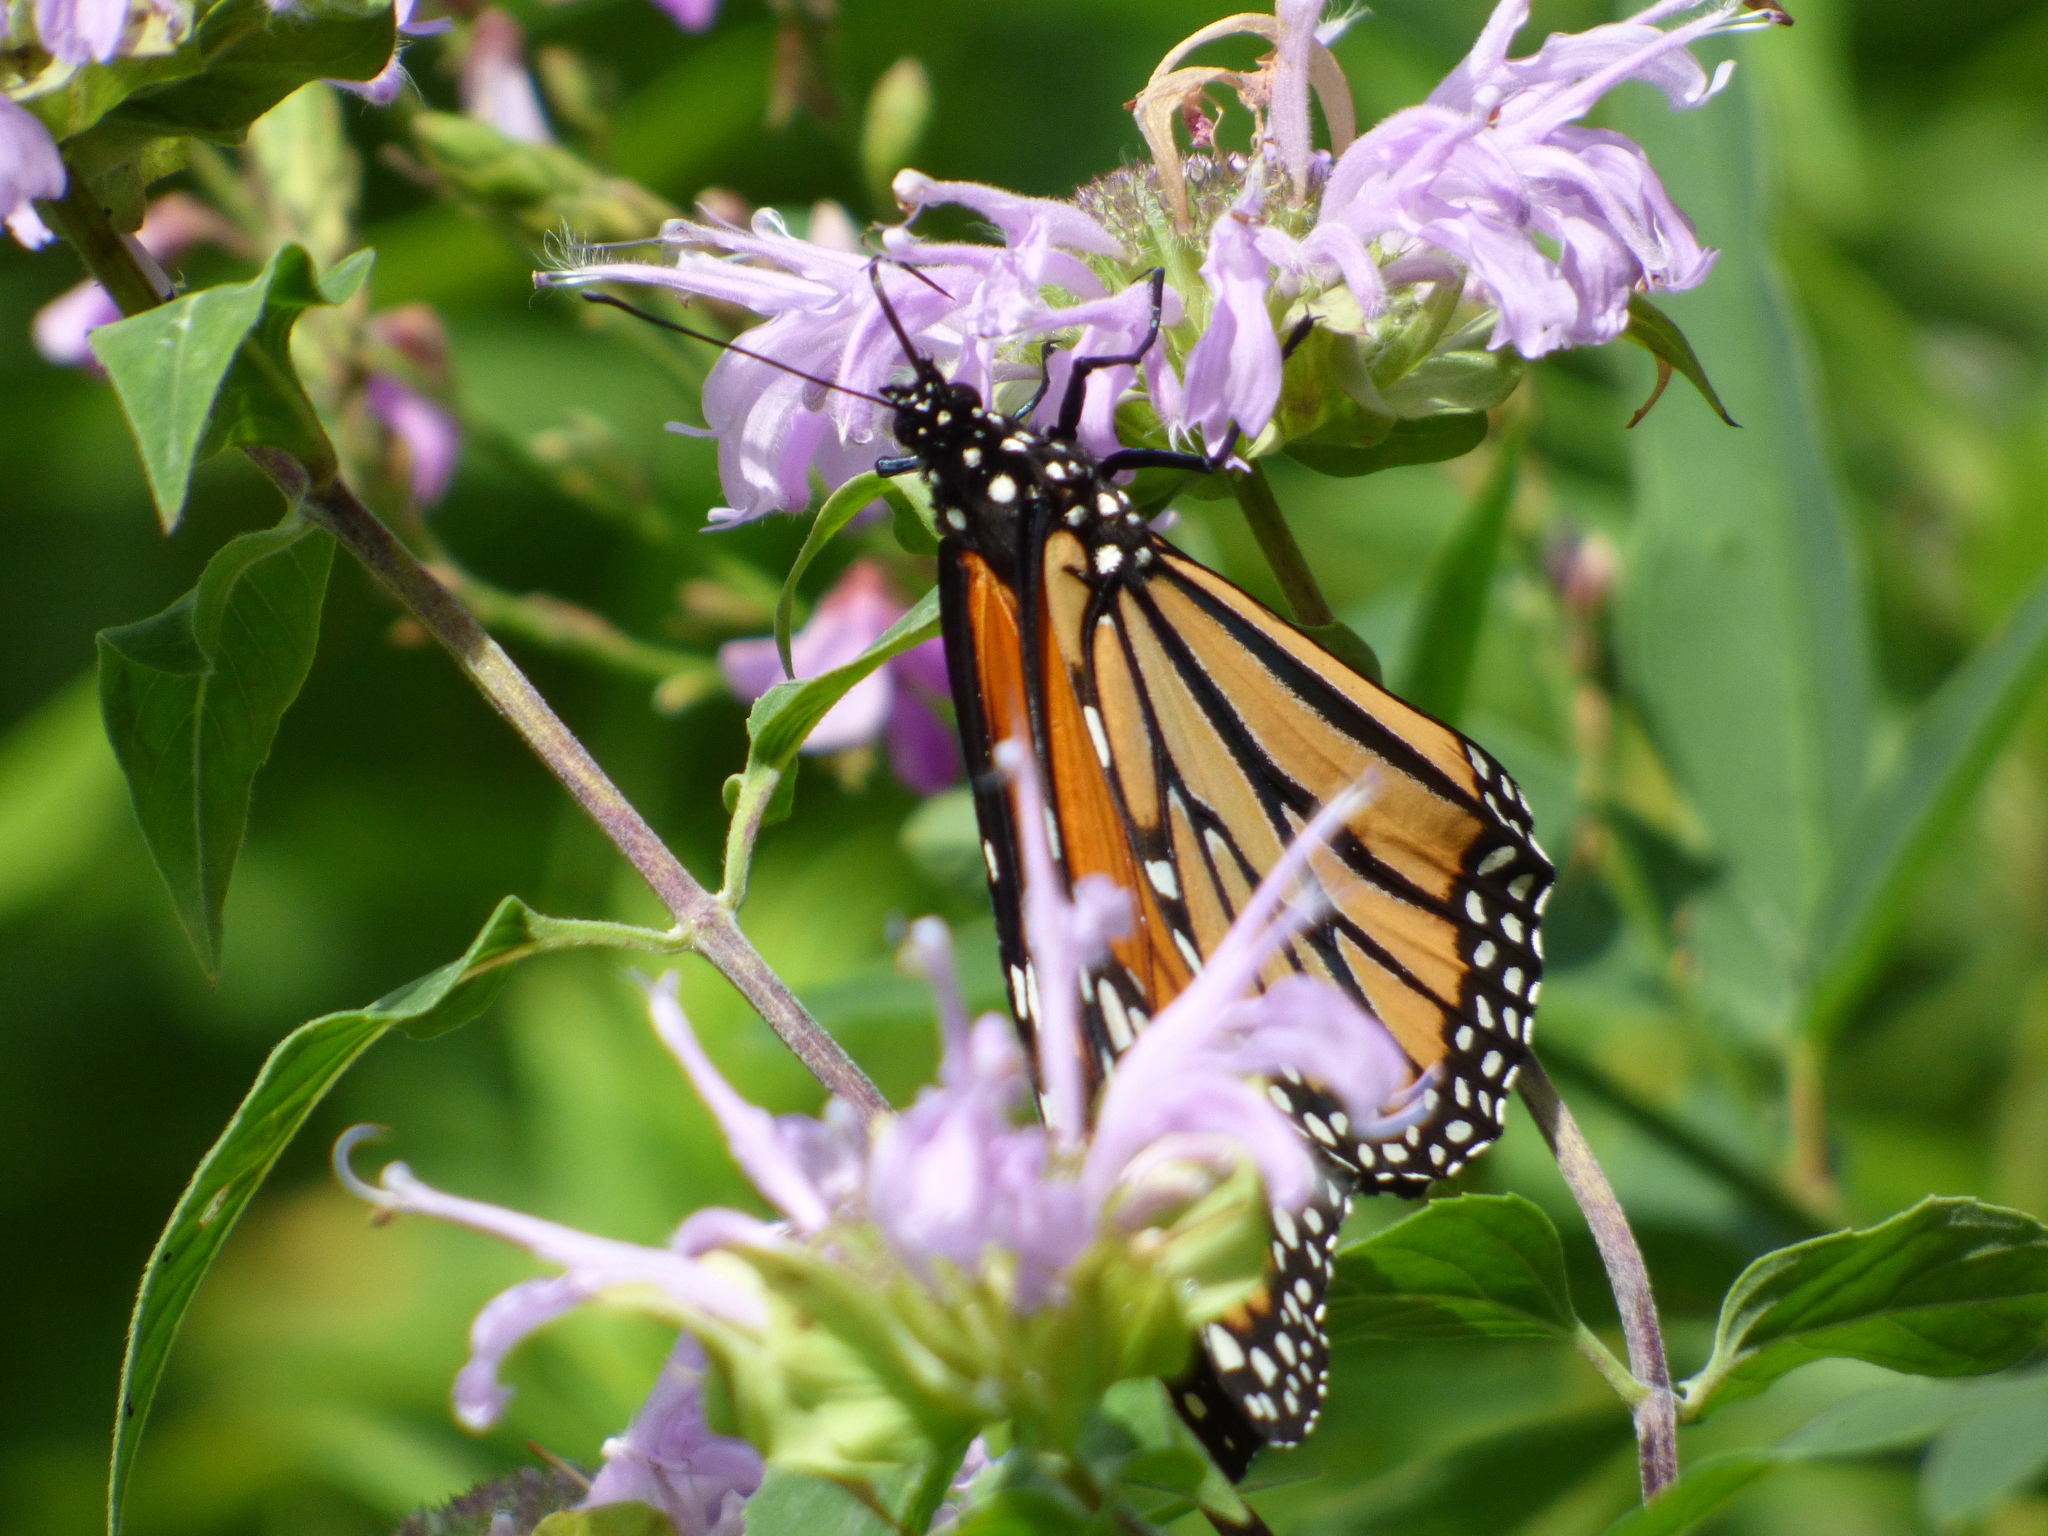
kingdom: Animalia
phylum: Arthropoda
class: Insecta
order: Lepidoptera
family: Nymphalidae
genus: Danaus
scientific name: Danaus plexippus
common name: Monarch
